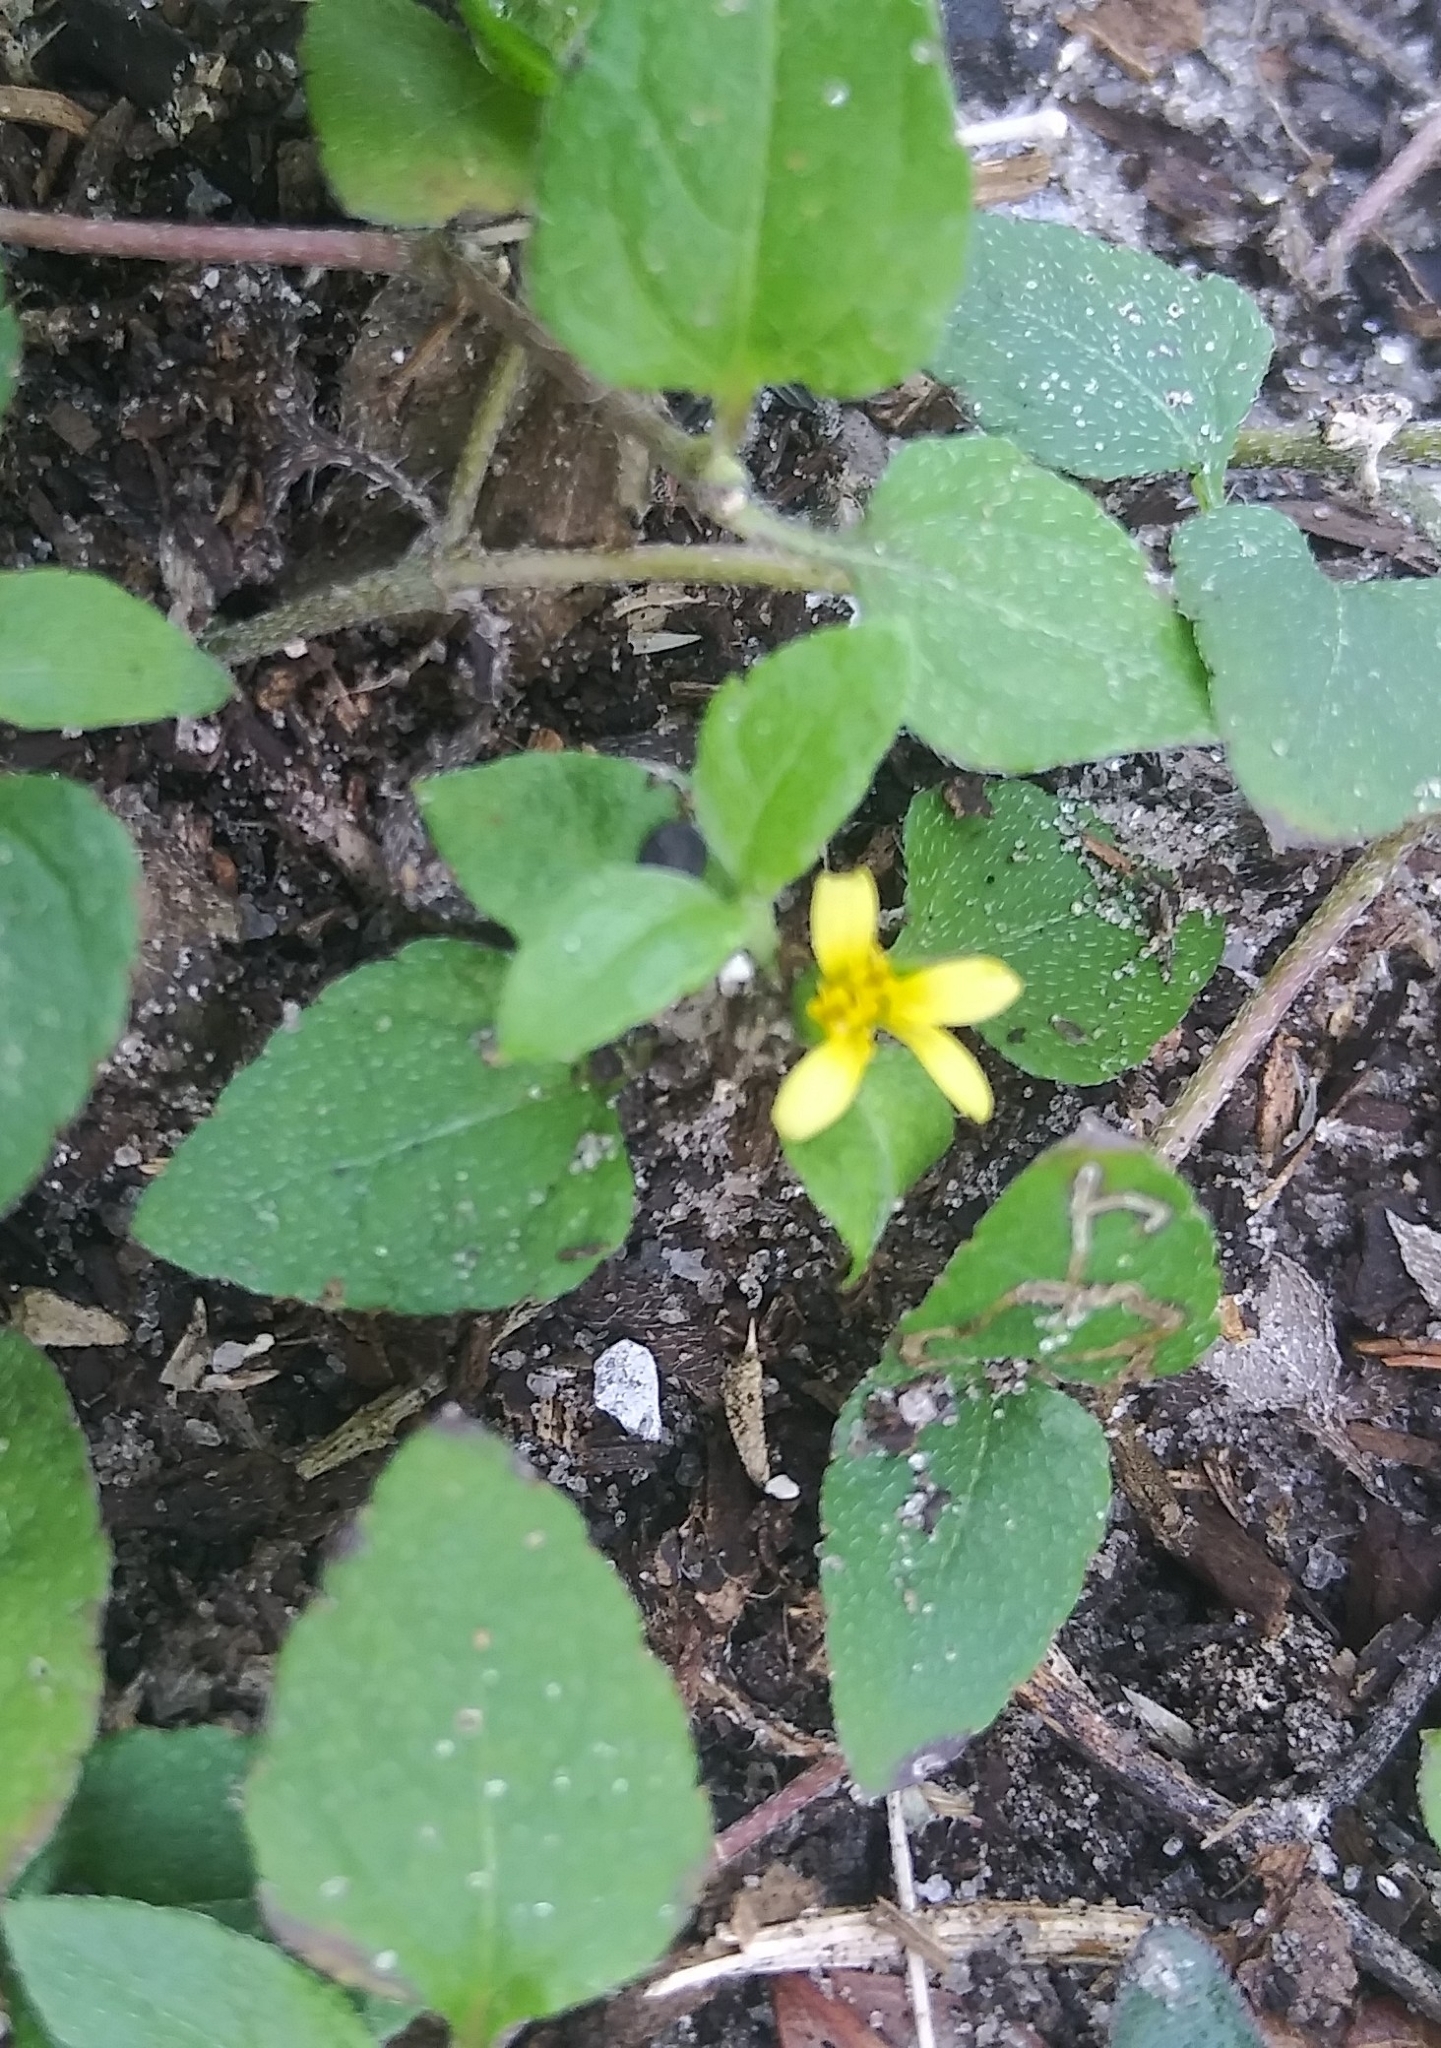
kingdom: Plantae
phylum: Tracheophyta
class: Magnoliopsida
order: Asterales
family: Asteraceae
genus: Calyptocarpus
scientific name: Calyptocarpus vialis
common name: Straggler daisy
